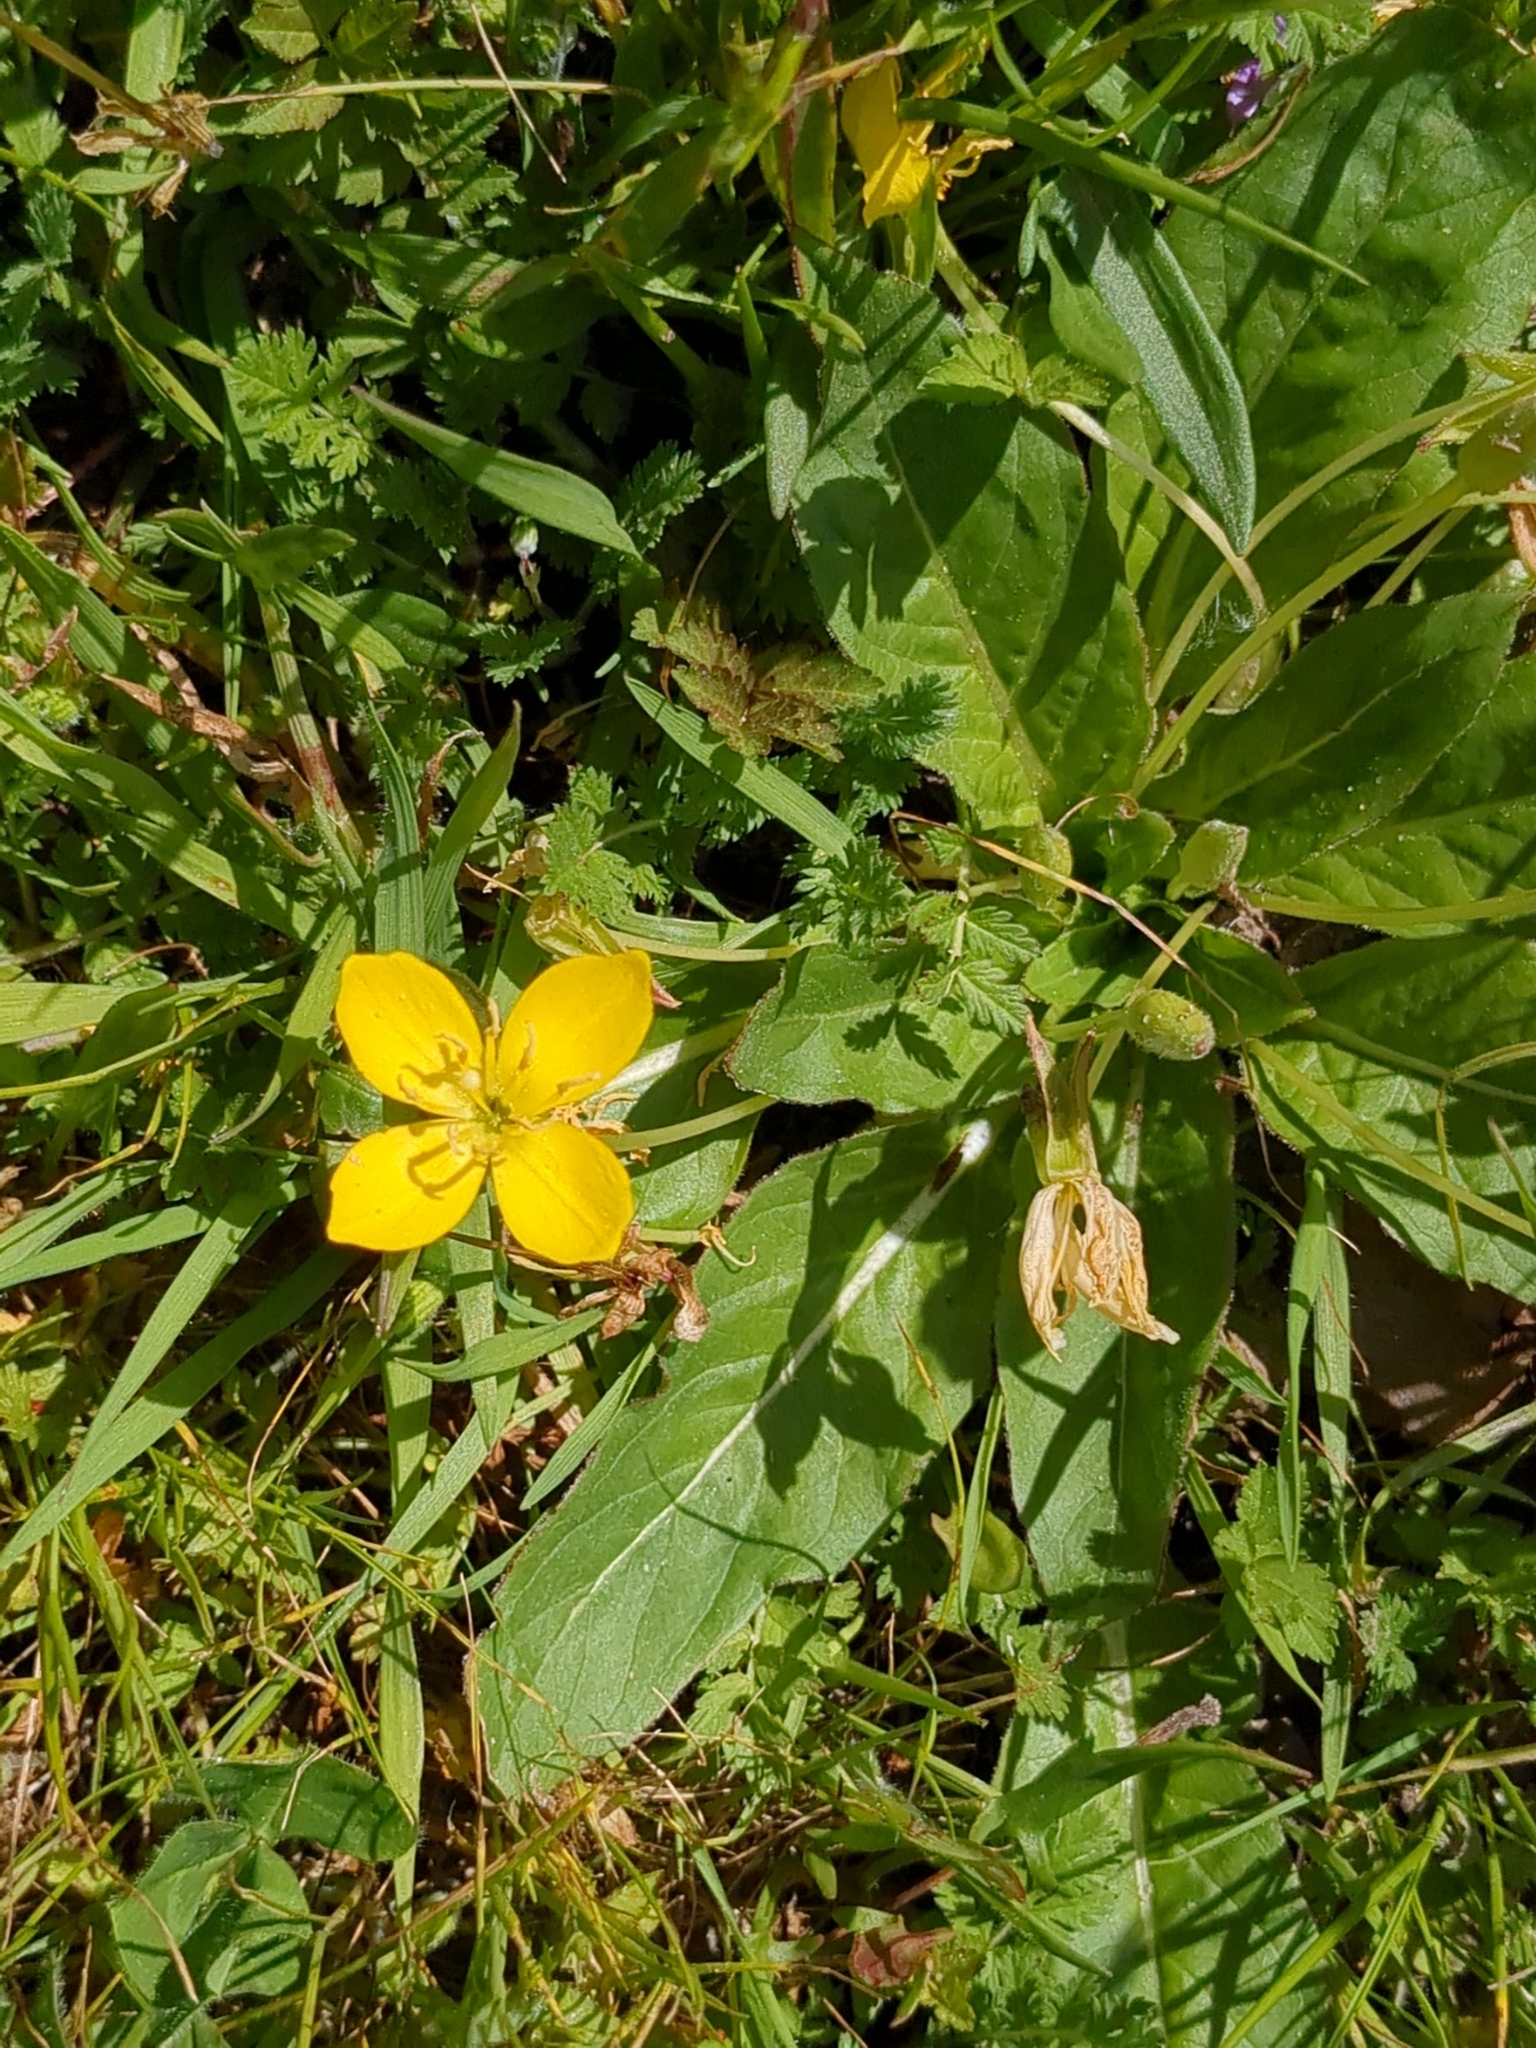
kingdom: Plantae
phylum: Tracheophyta
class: Magnoliopsida
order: Myrtales
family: Onagraceae
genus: Taraxia
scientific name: Taraxia ovata
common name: Goldeneggs
